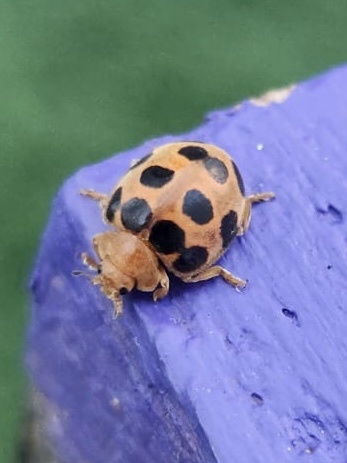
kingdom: Animalia
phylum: Arthropoda
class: Insecta
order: Coleoptera
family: Coccinellidae
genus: Chnootriba
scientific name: Chnootriba
